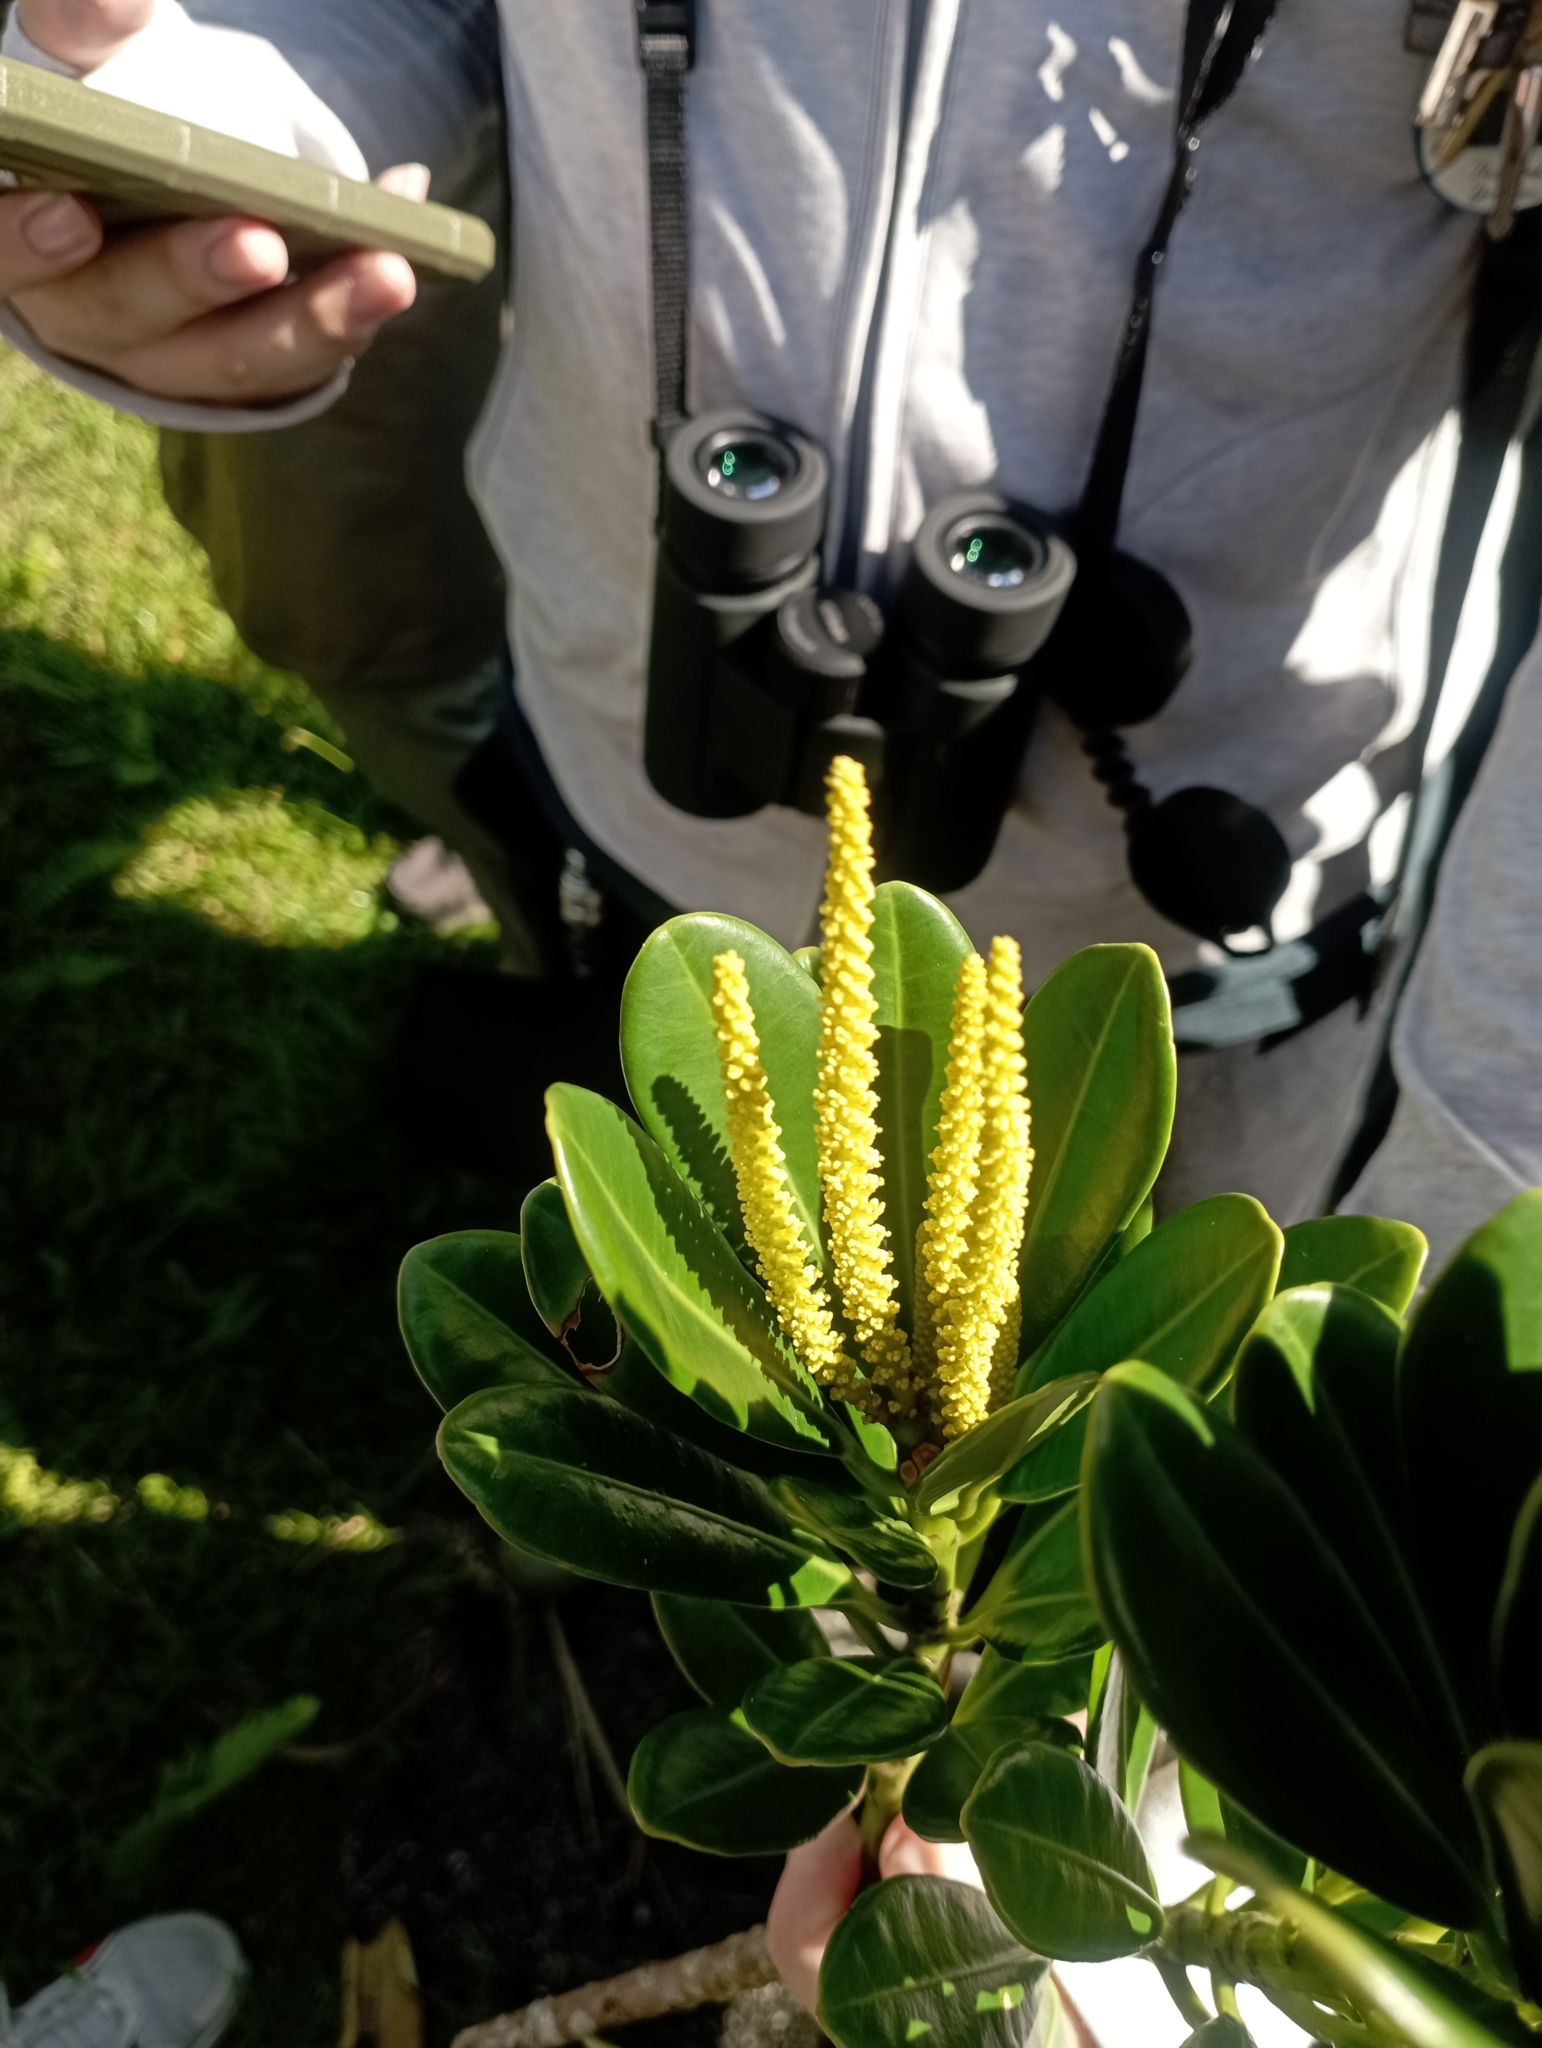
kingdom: Plantae
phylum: Tracheophyta
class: Magnoliopsida
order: Malpighiales
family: Euphorbiaceae
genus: Excoecaria
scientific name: Excoecaria kawakamii
